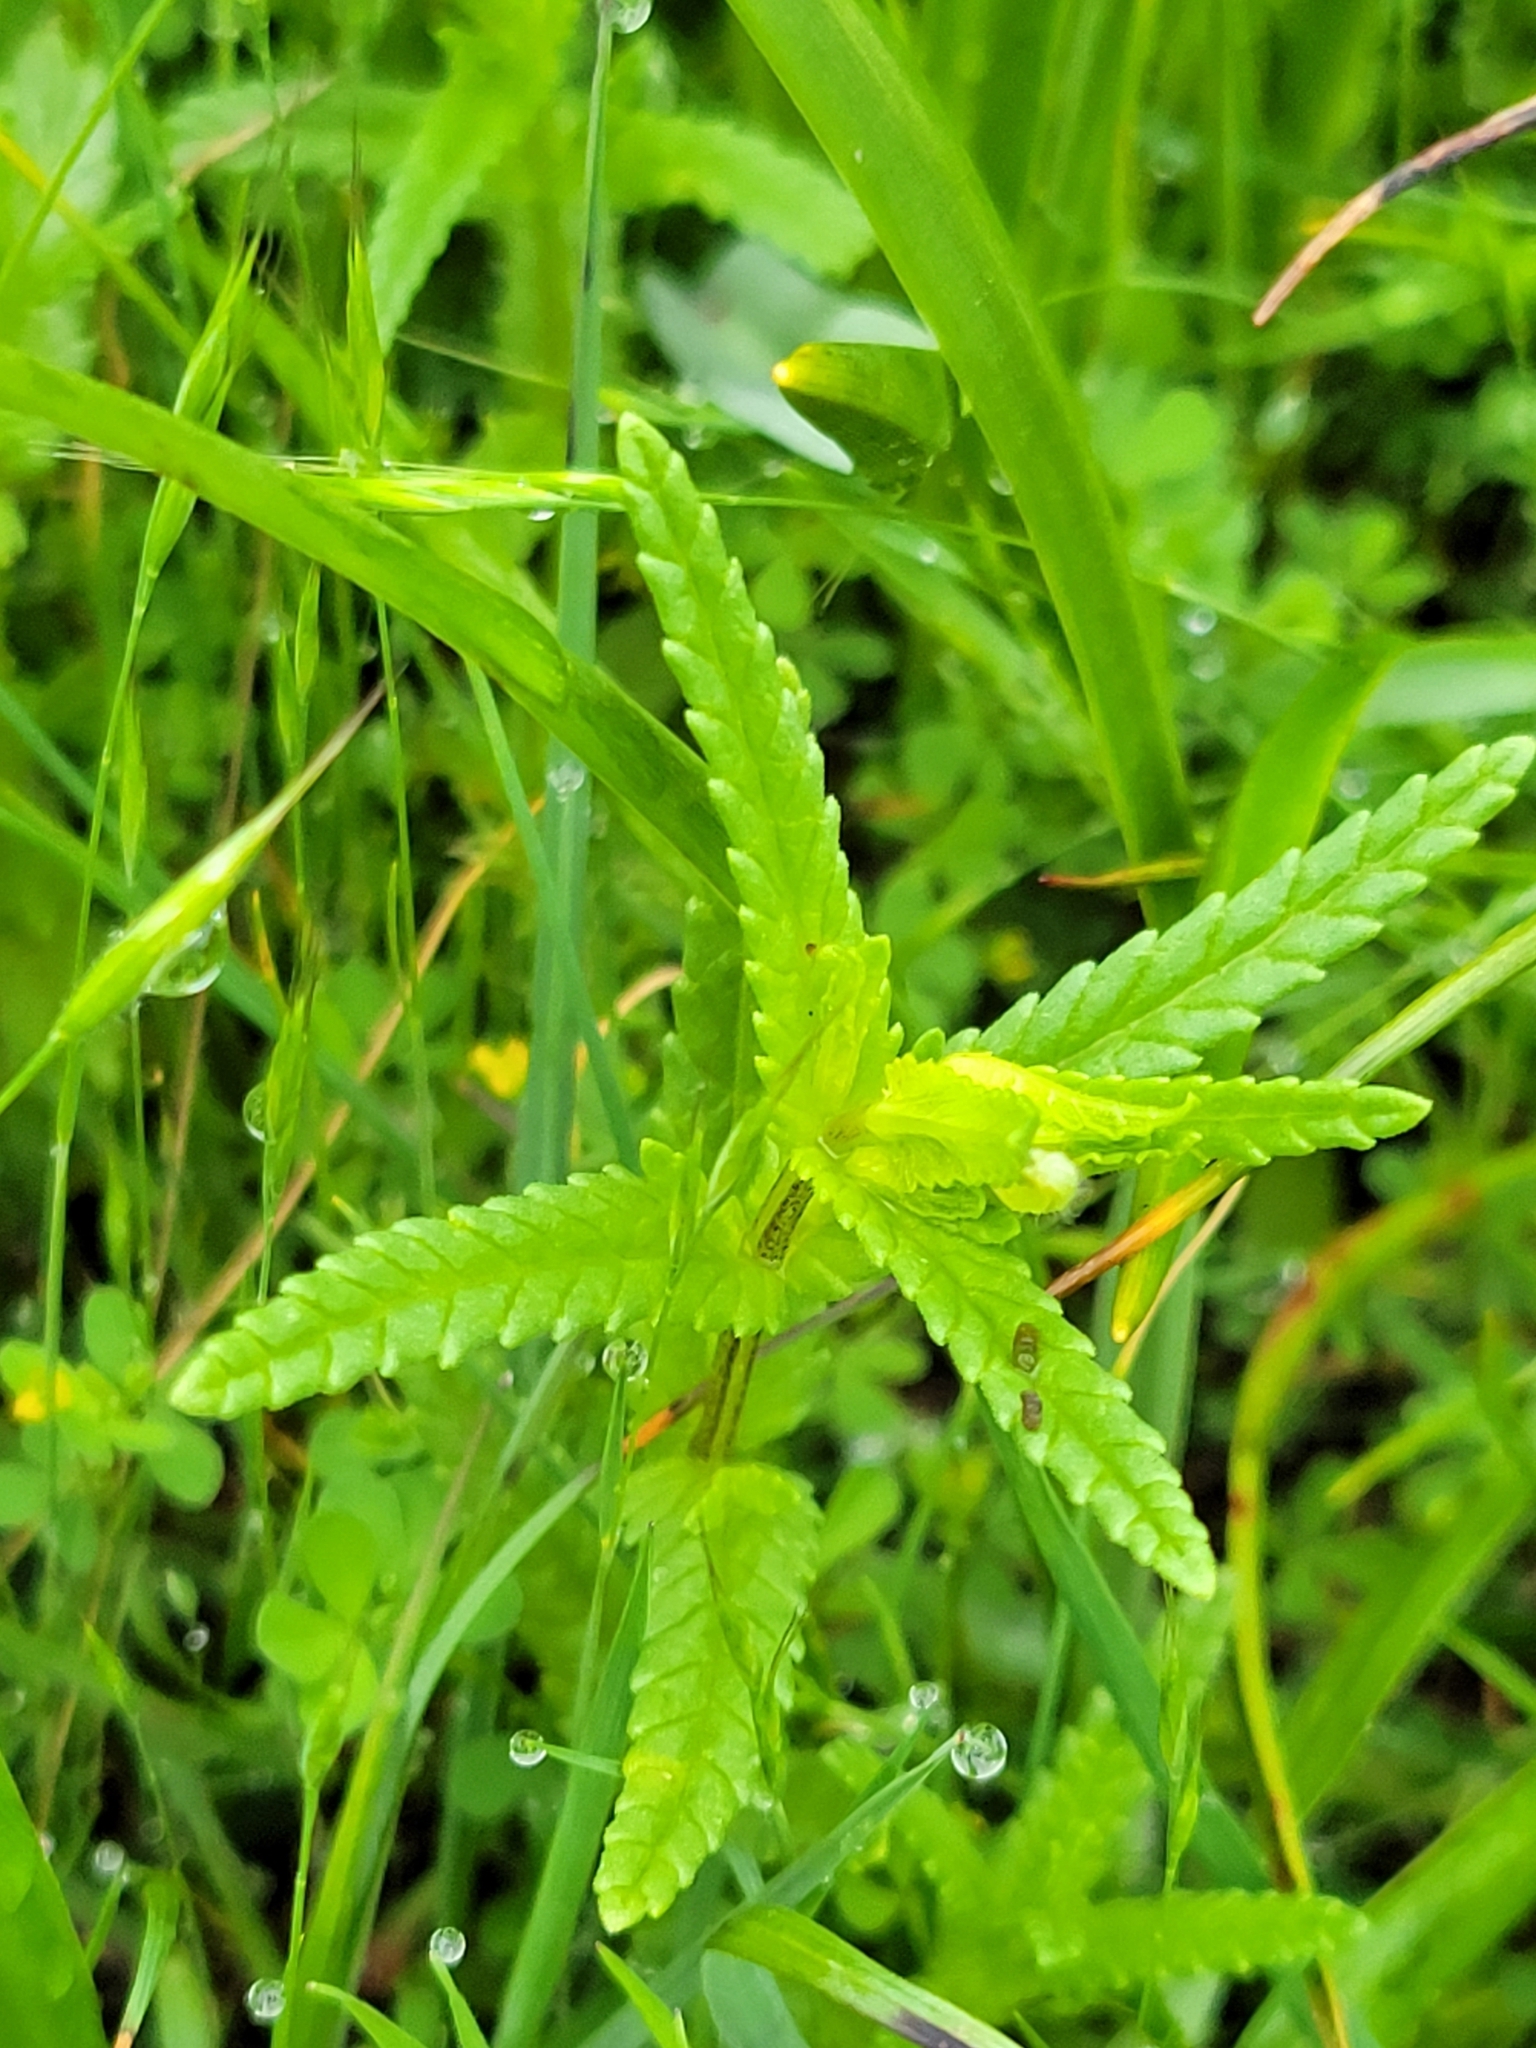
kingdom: Plantae
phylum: Tracheophyta
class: Magnoliopsida
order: Lamiales
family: Orobanchaceae
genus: Rhinanthus
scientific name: Rhinanthus minor
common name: Yellow-rattle
